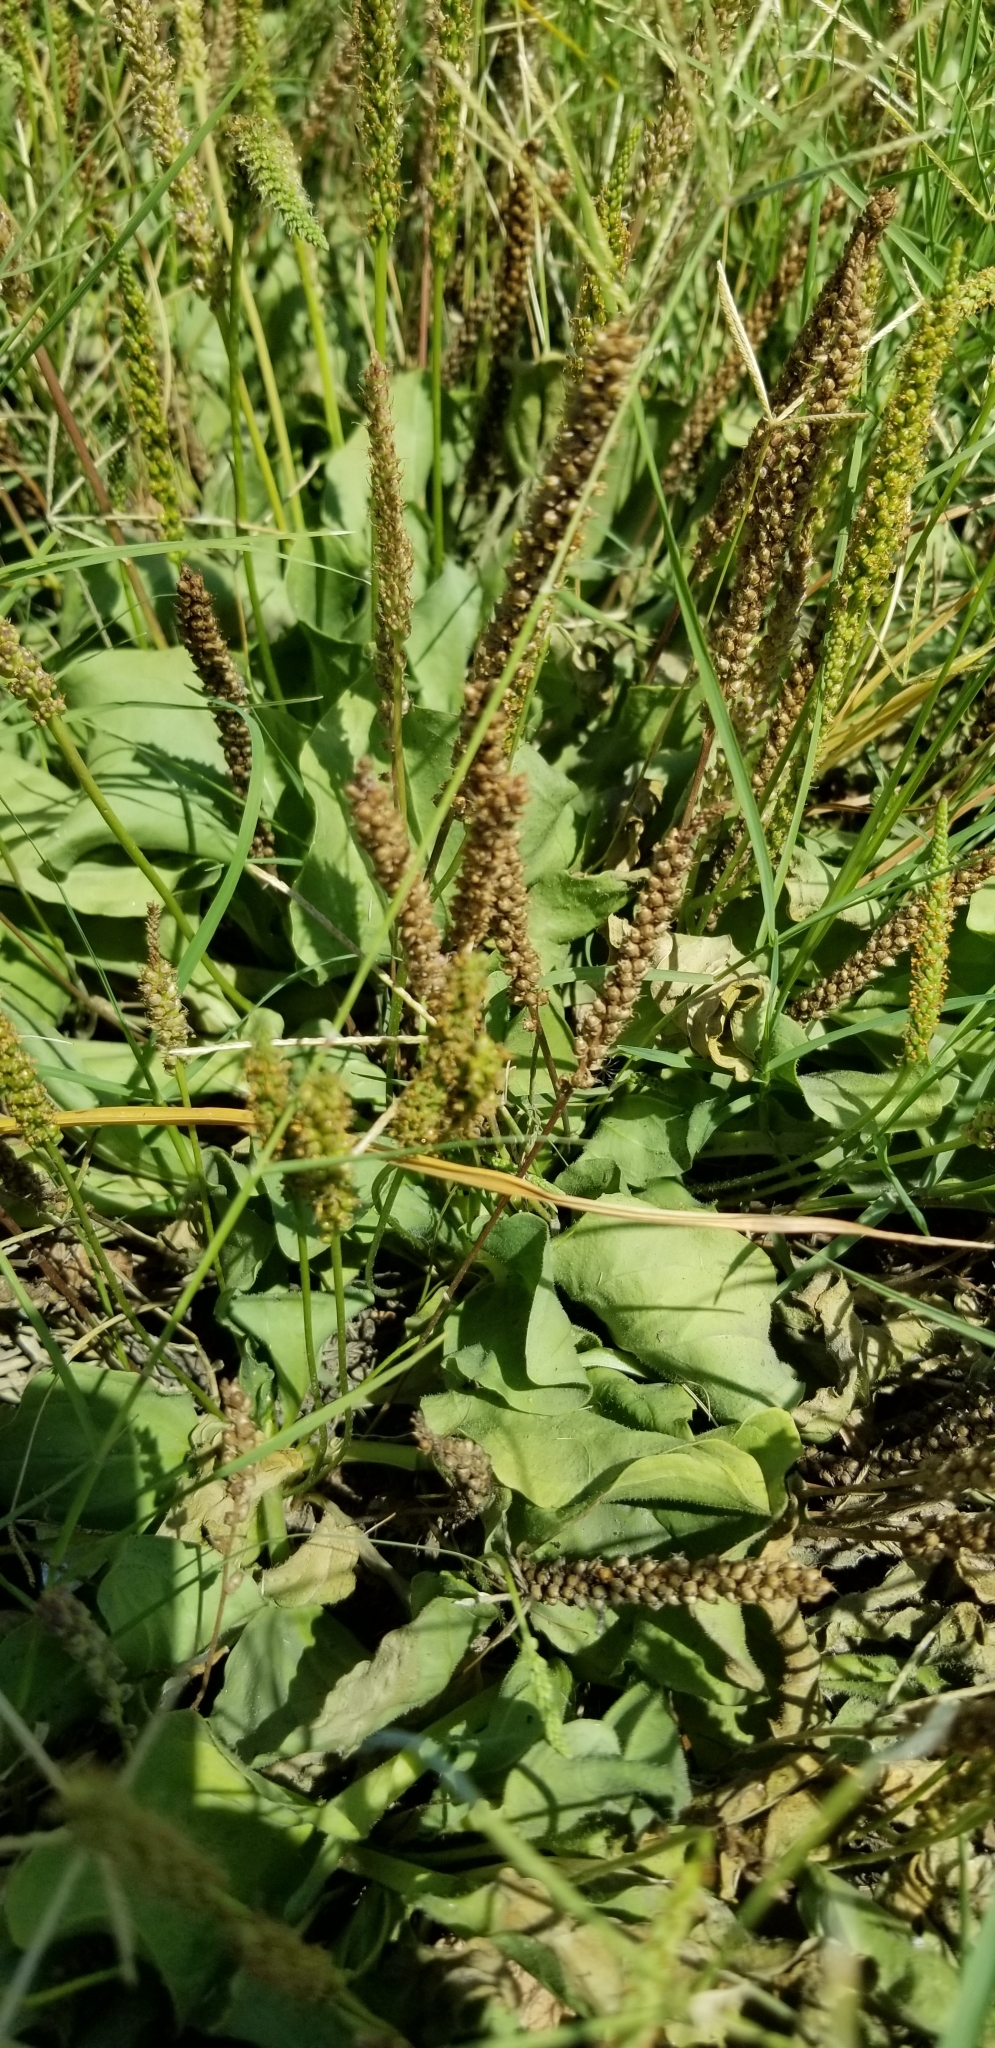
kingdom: Plantae
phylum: Tracheophyta
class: Magnoliopsida
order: Lamiales
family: Plantaginaceae
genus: Plantago
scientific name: Plantago major
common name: Common plantain
